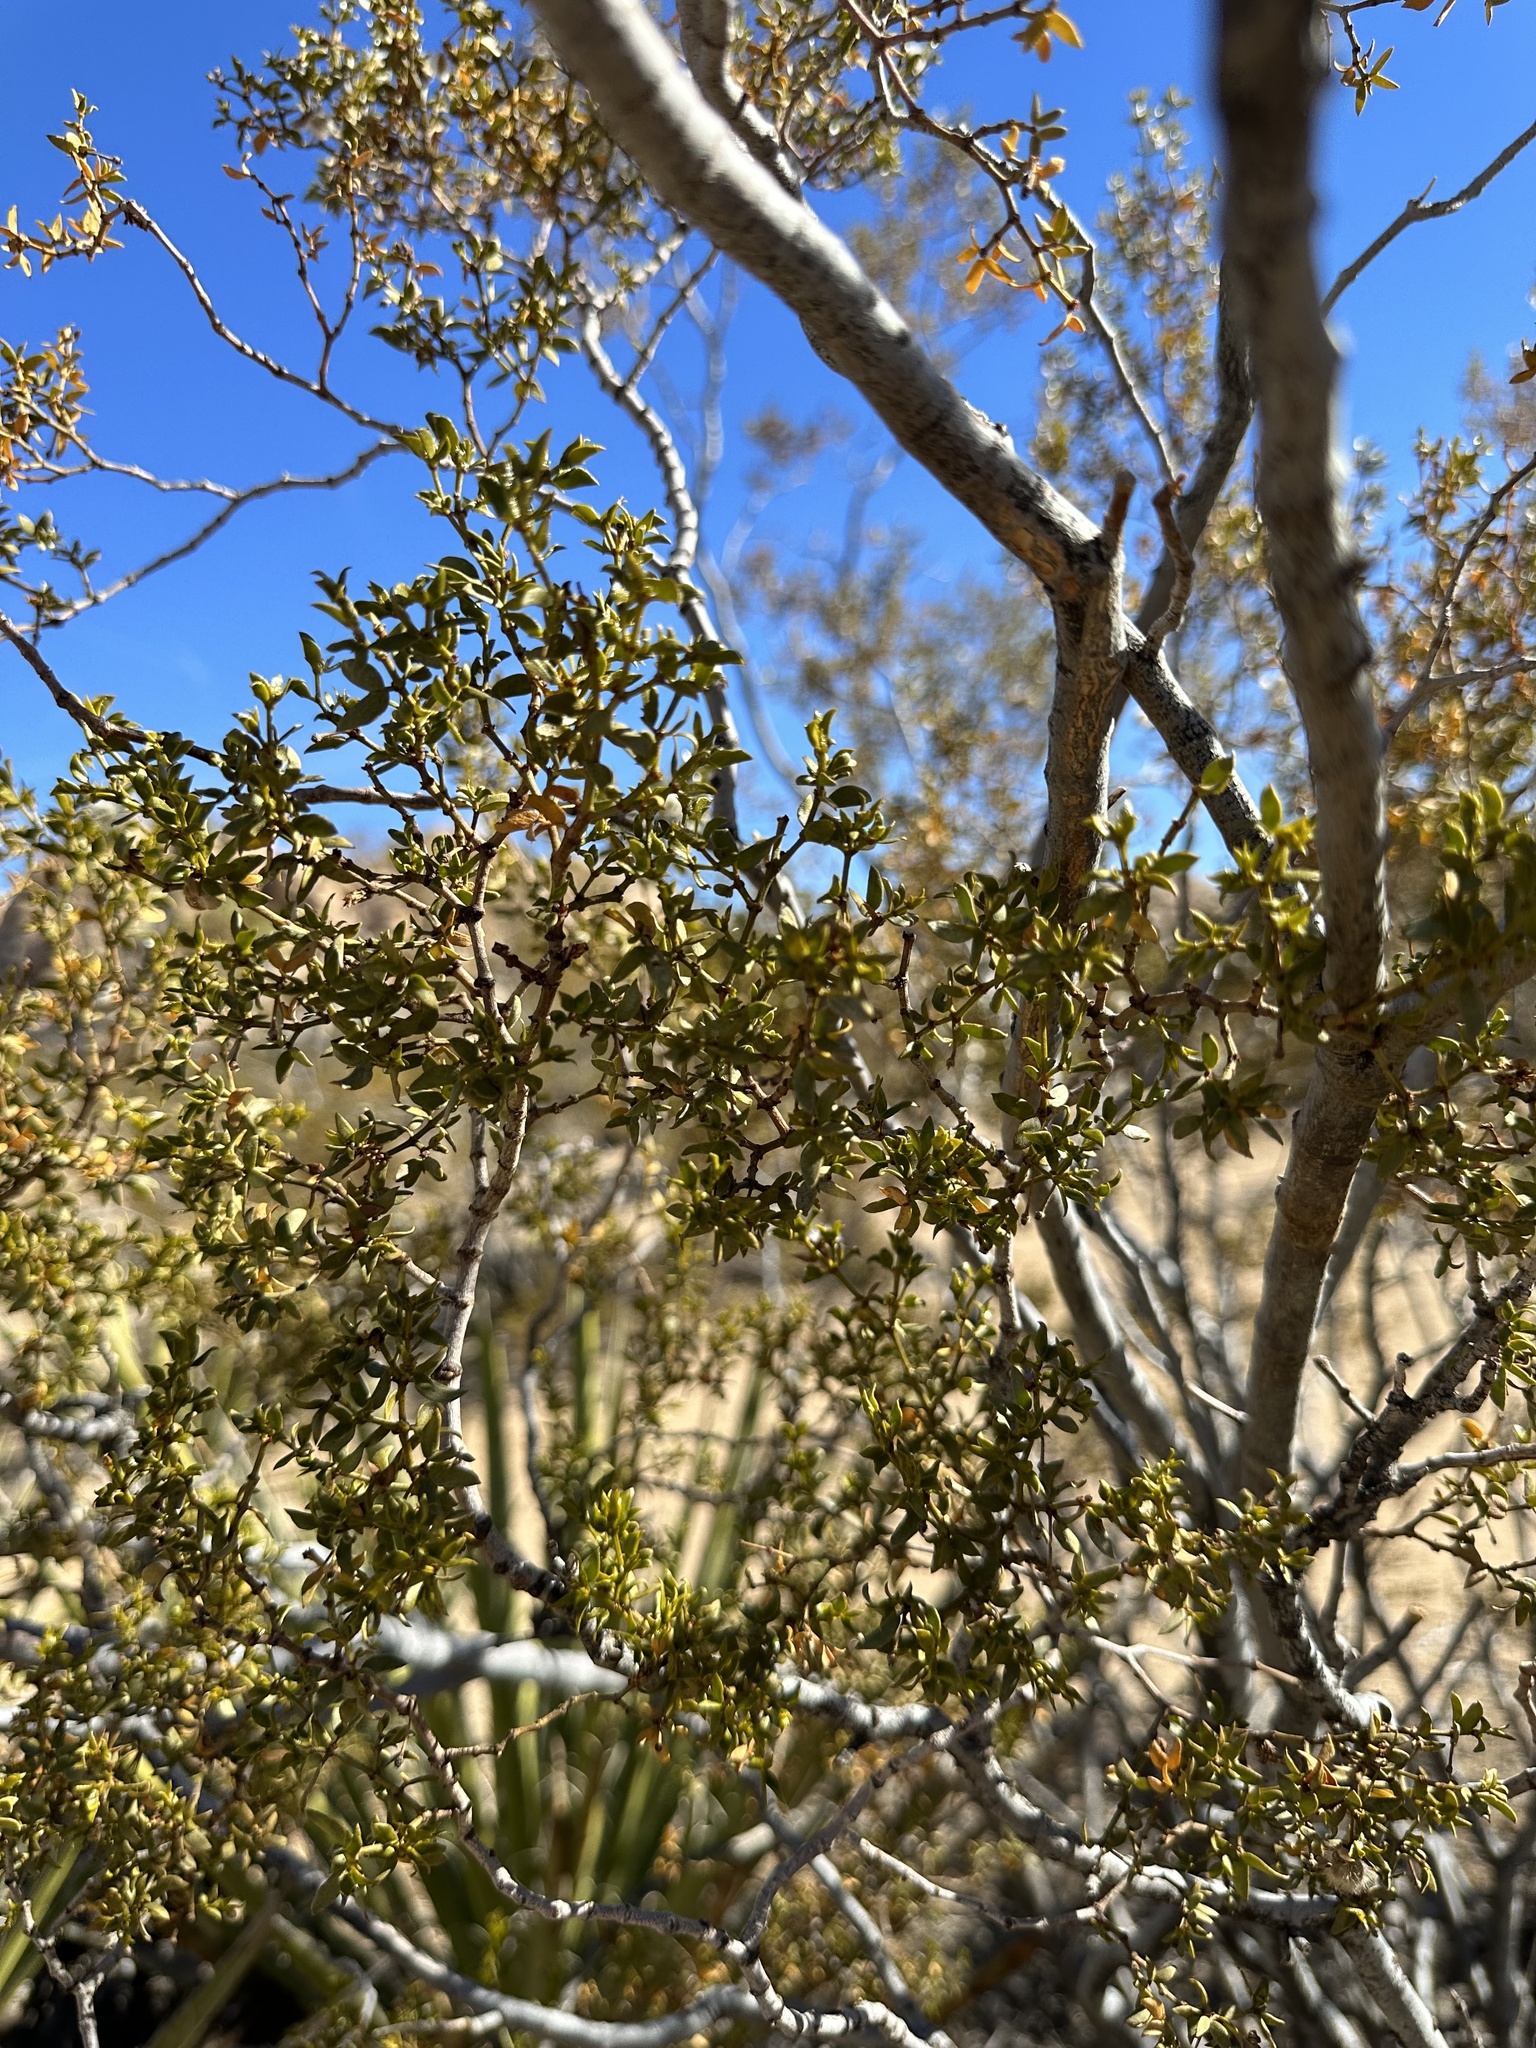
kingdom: Plantae
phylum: Tracheophyta
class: Magnoliopsida
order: Zygophyllales
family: Zygophyllaceae
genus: Larrea
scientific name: Larrea tridentata
